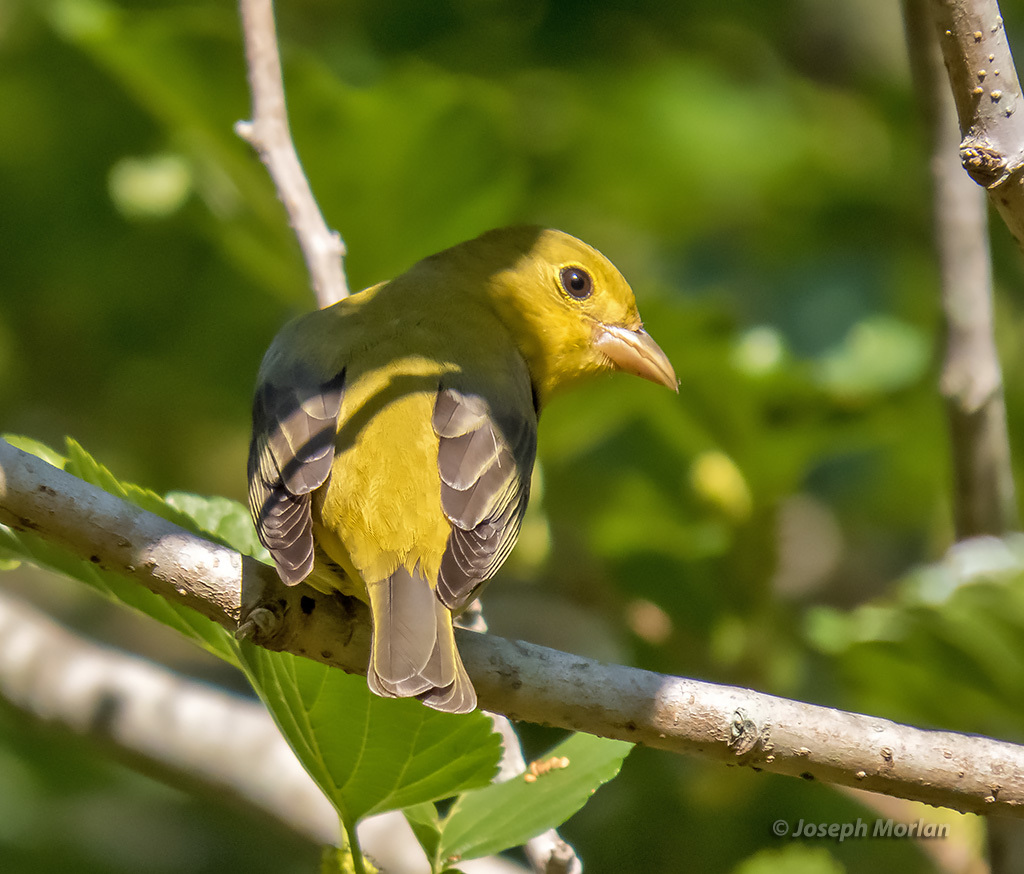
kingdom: Animalia
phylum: Chordata
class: Aves
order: Passeriformes
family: Cardinalidae
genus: Piranga
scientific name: Piranga olivacea
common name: Scarlet tanager
